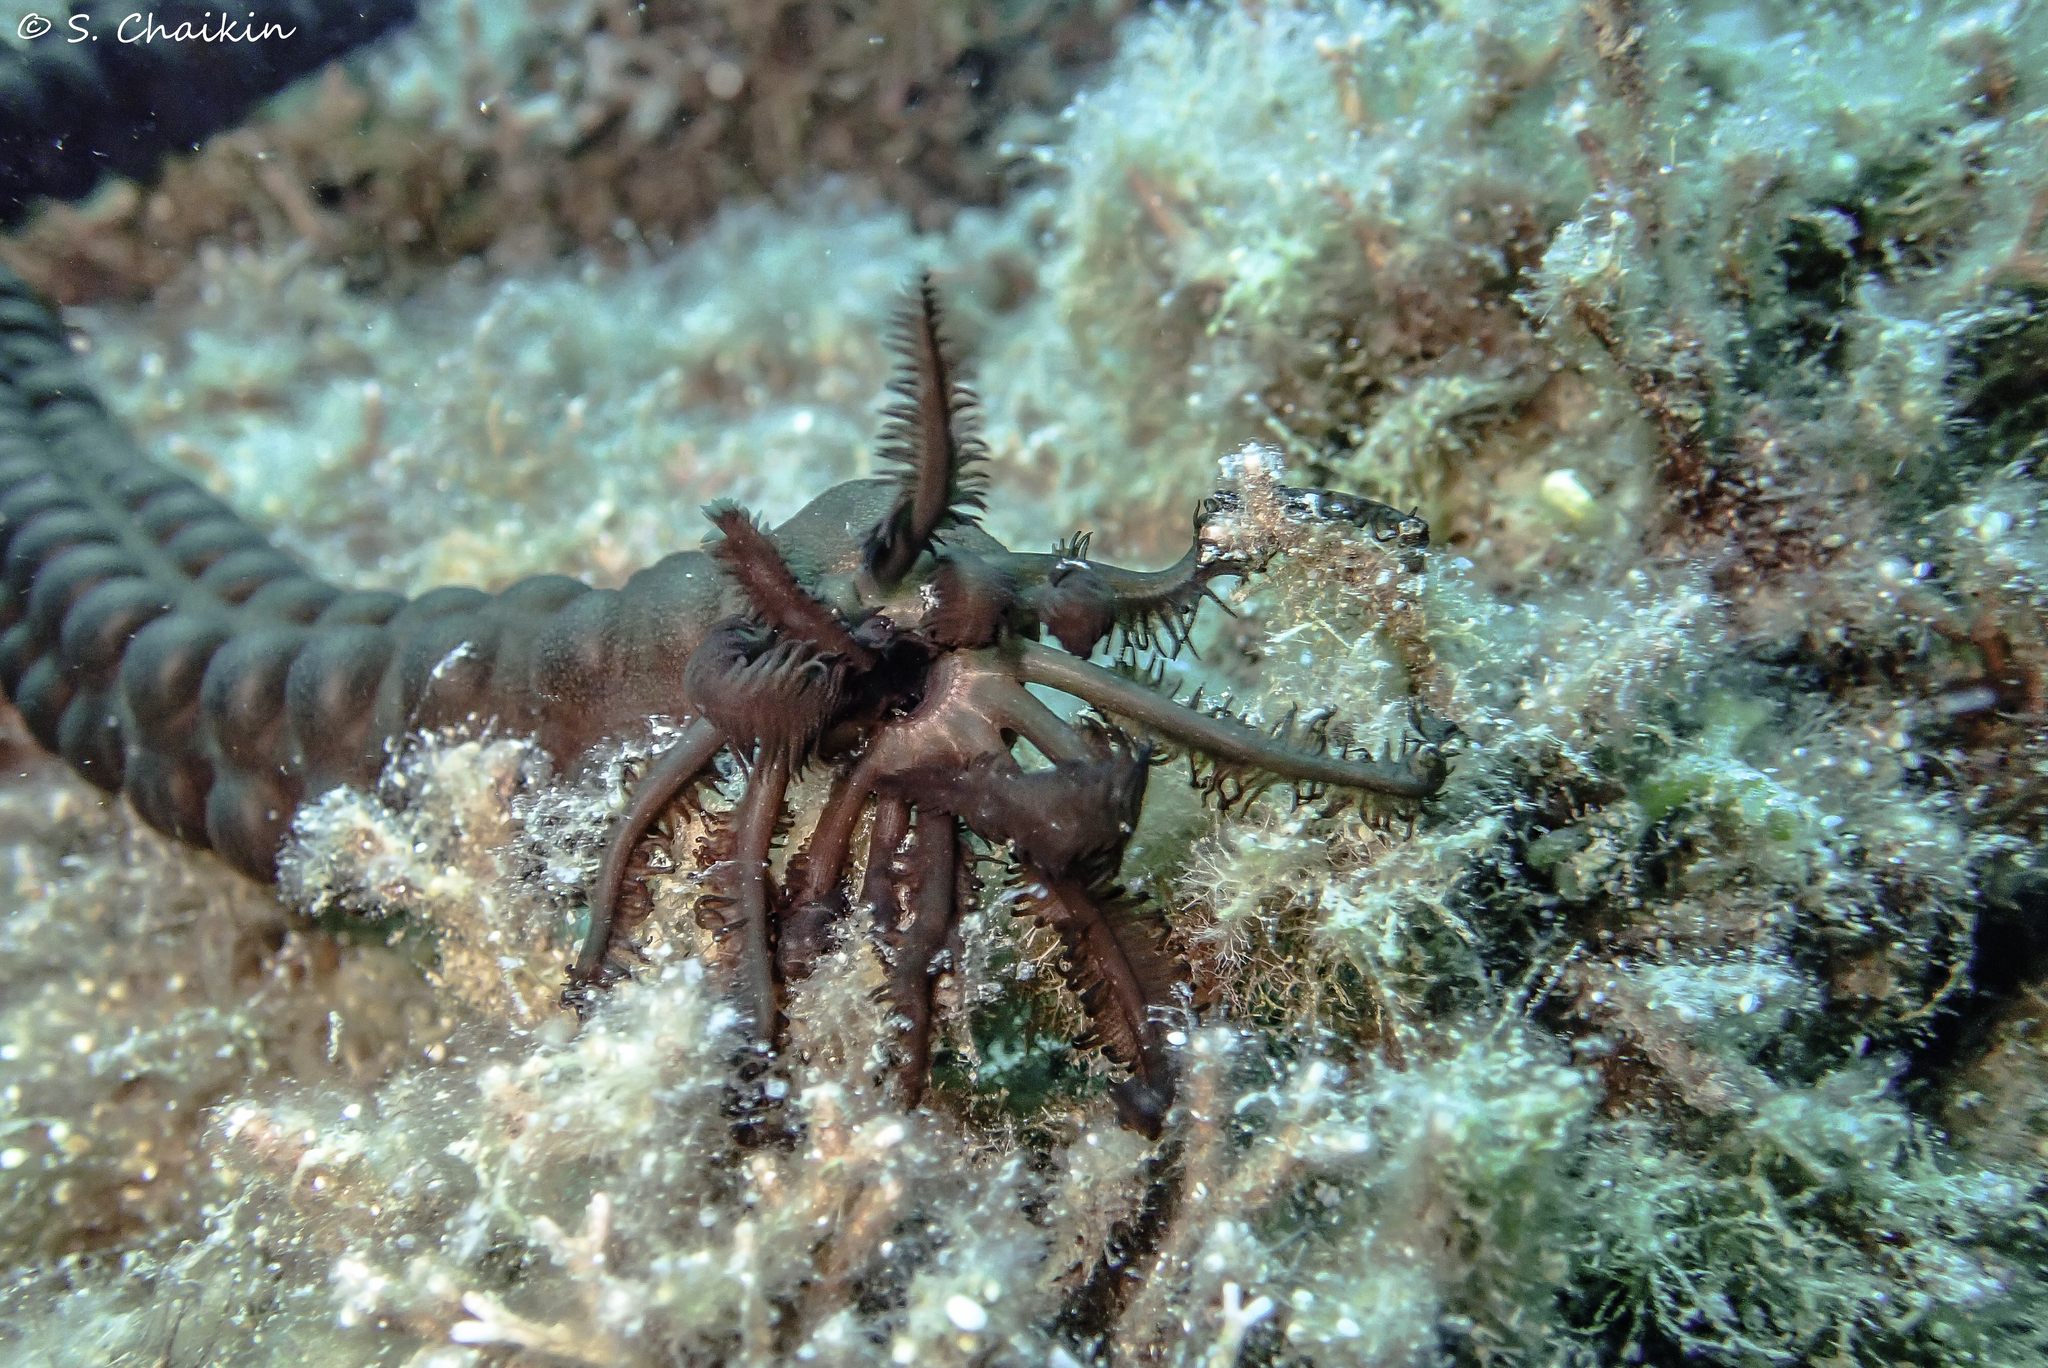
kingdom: Animalia
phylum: Echinodermata
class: Holothuroidea
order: Apodida
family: Synaptidae
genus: Synaptula
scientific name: Synaptula reciprocans
